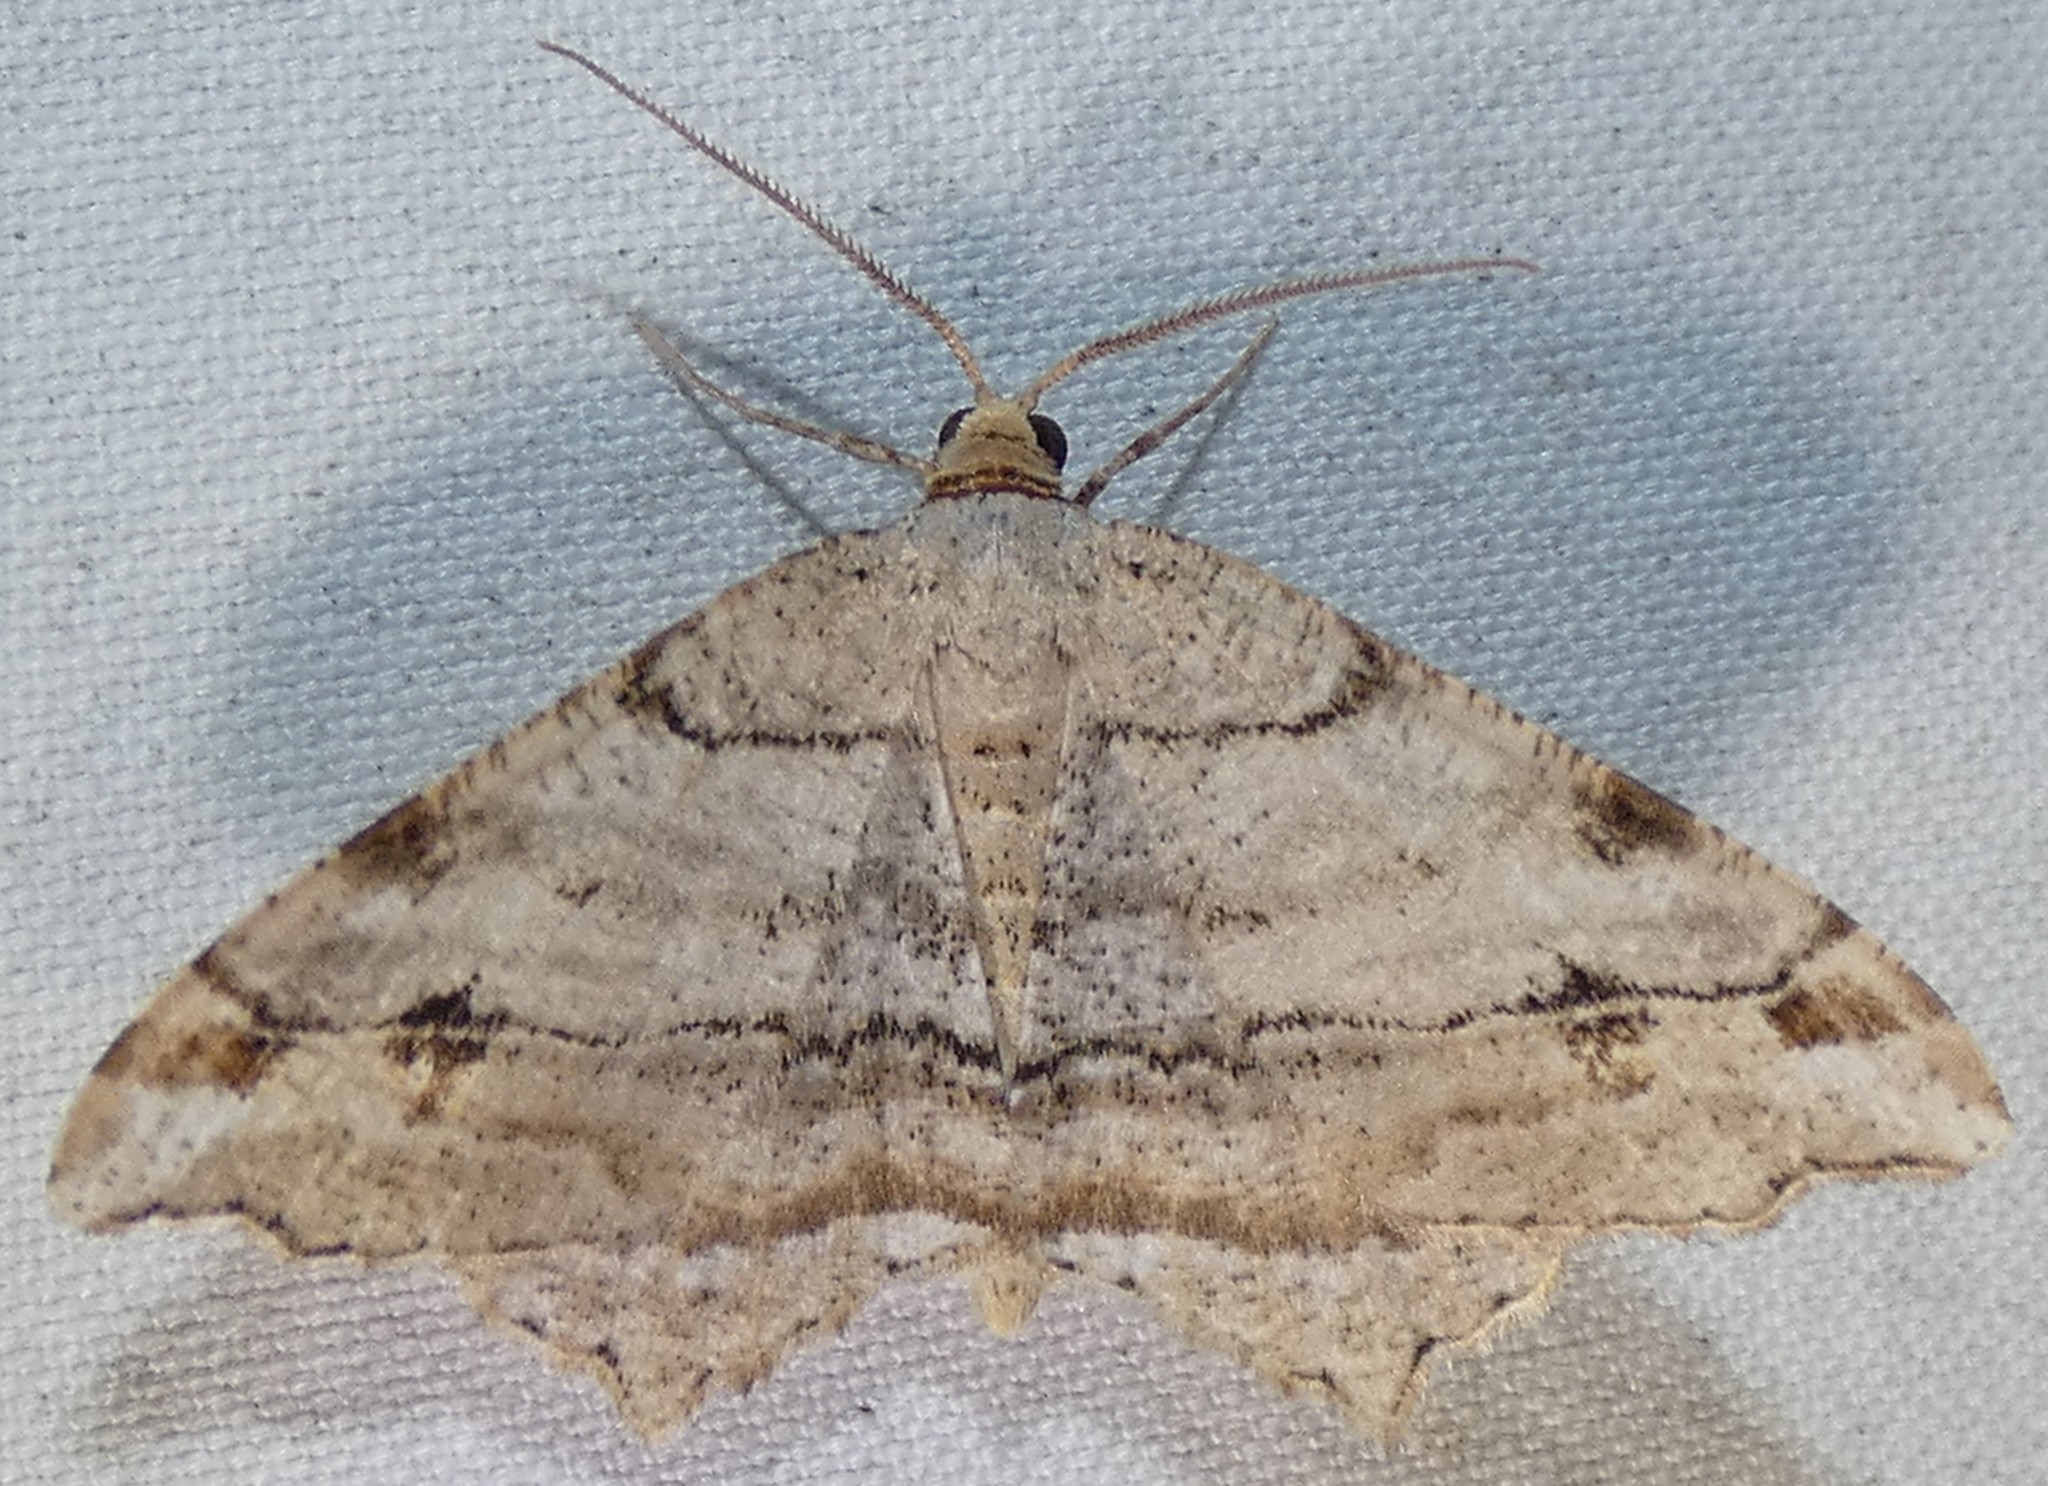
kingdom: Animalia
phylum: Arthropoda
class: Insecta
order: Lepidoptera
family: Geometridae
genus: Macaria
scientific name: Macaria multilineata
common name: Many-lined angle
